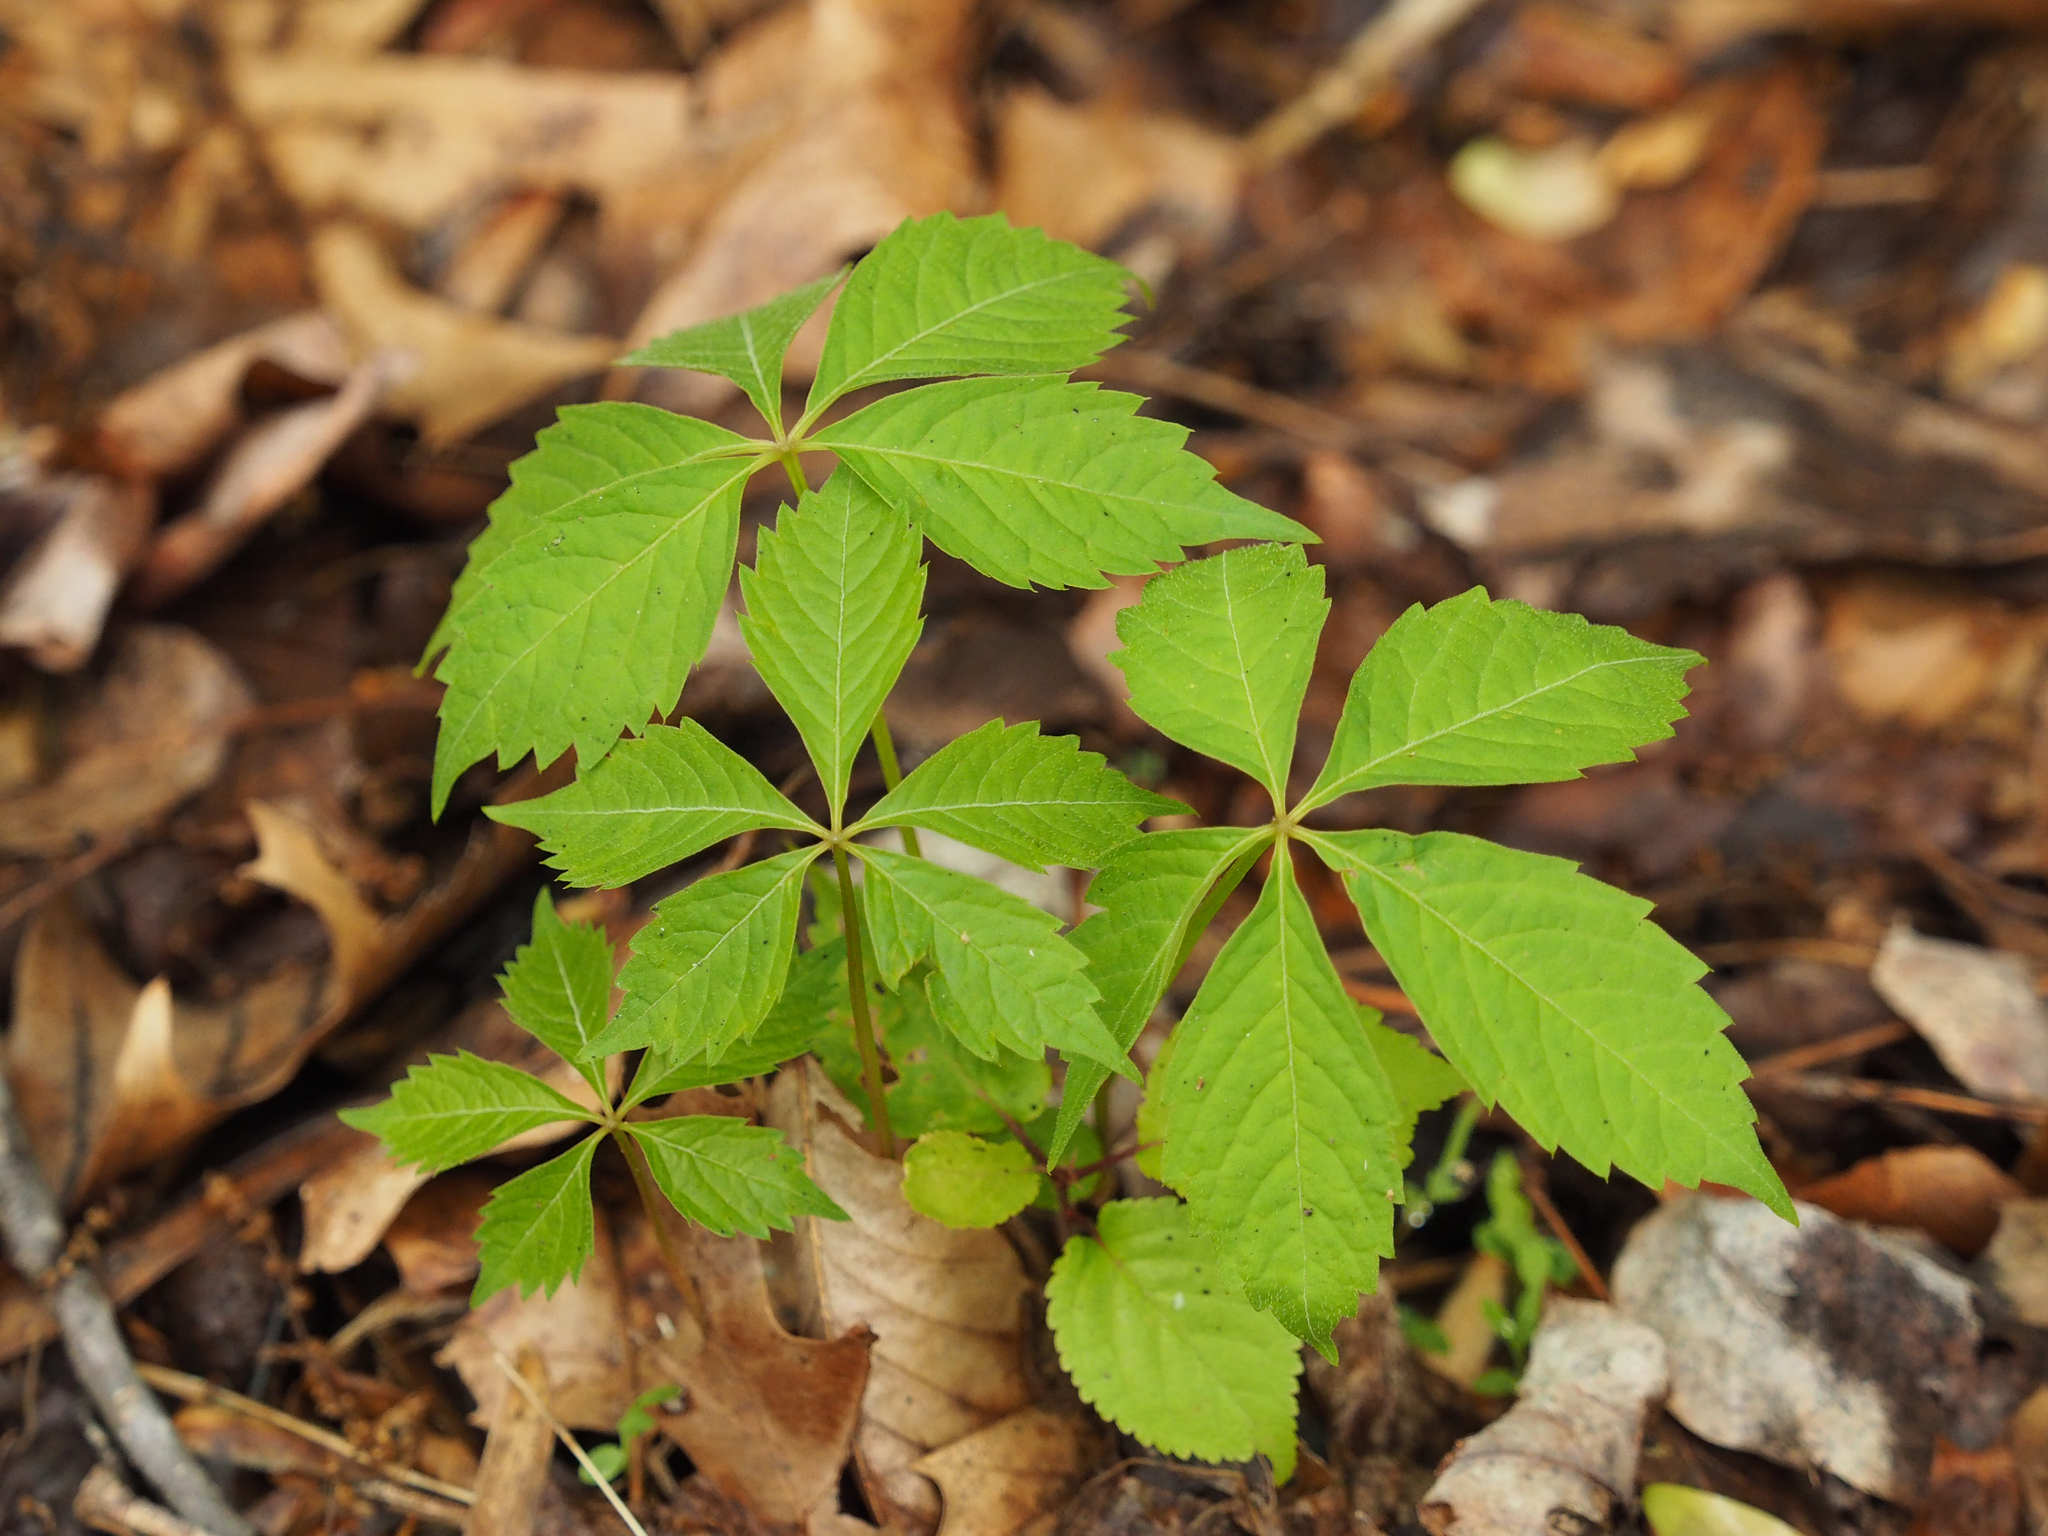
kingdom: Plantae
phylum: Tracheophyta
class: Magnoliopsida
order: Vitales
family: Vitaceae
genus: Parthenocissus
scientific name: Parthenocissus quinquefolia
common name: Virginia-creeper
